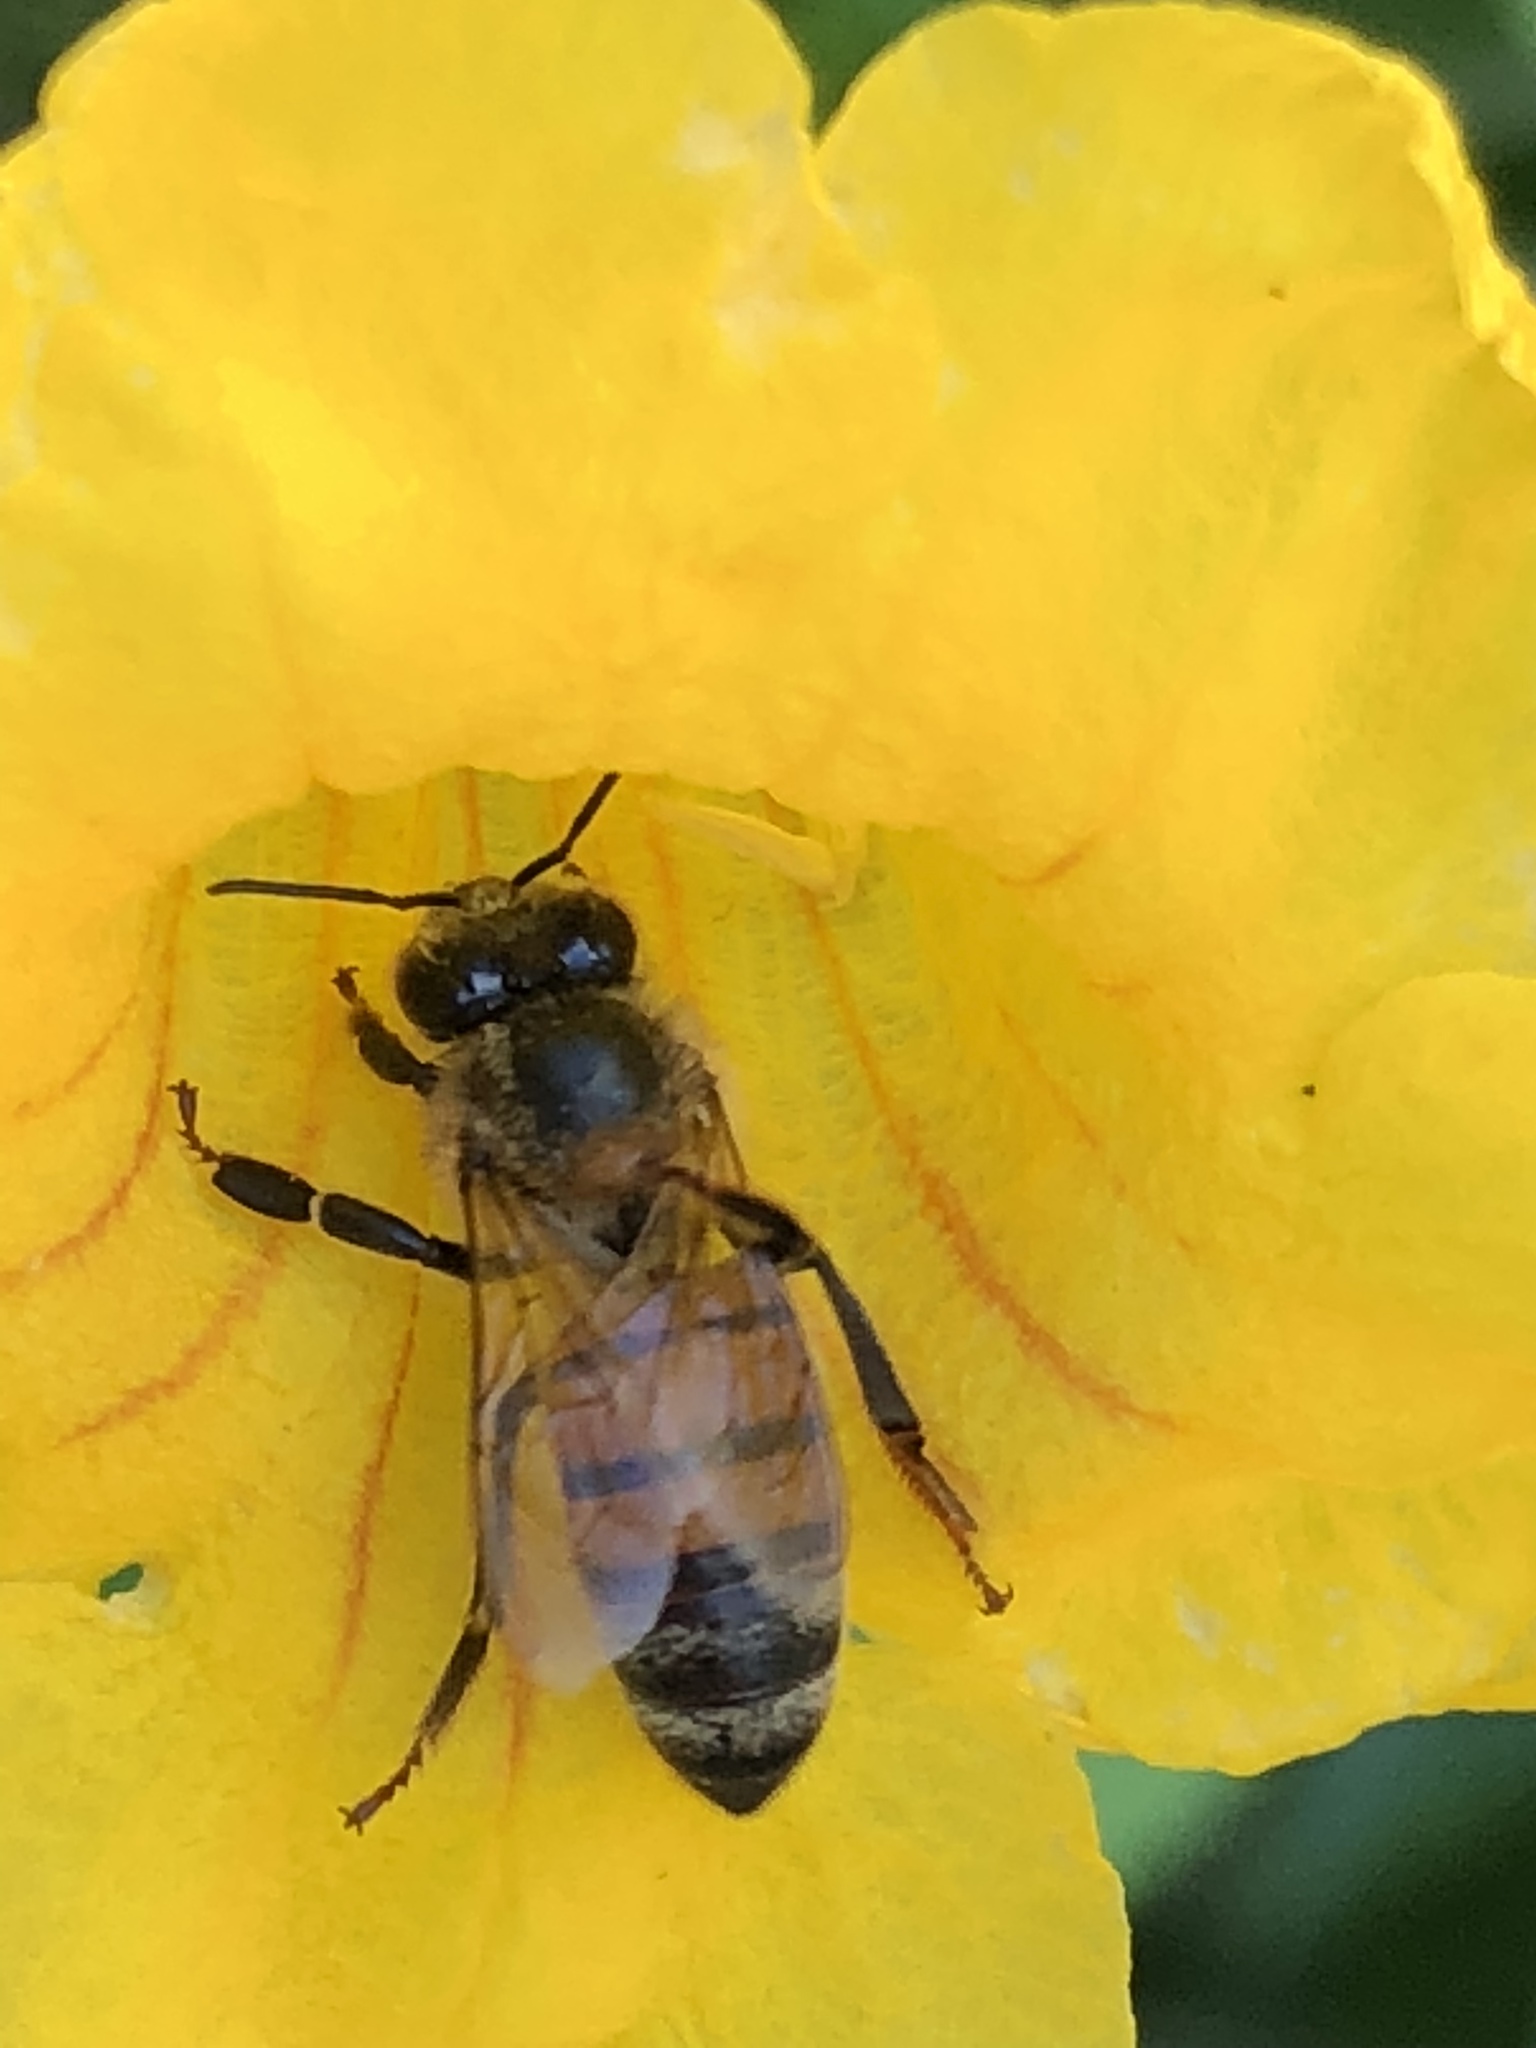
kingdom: Animalia
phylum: Arthropoda
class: Insecta
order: Hymenoptera
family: Apidae
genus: Apis
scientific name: Apis mellifera
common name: Honey bee
